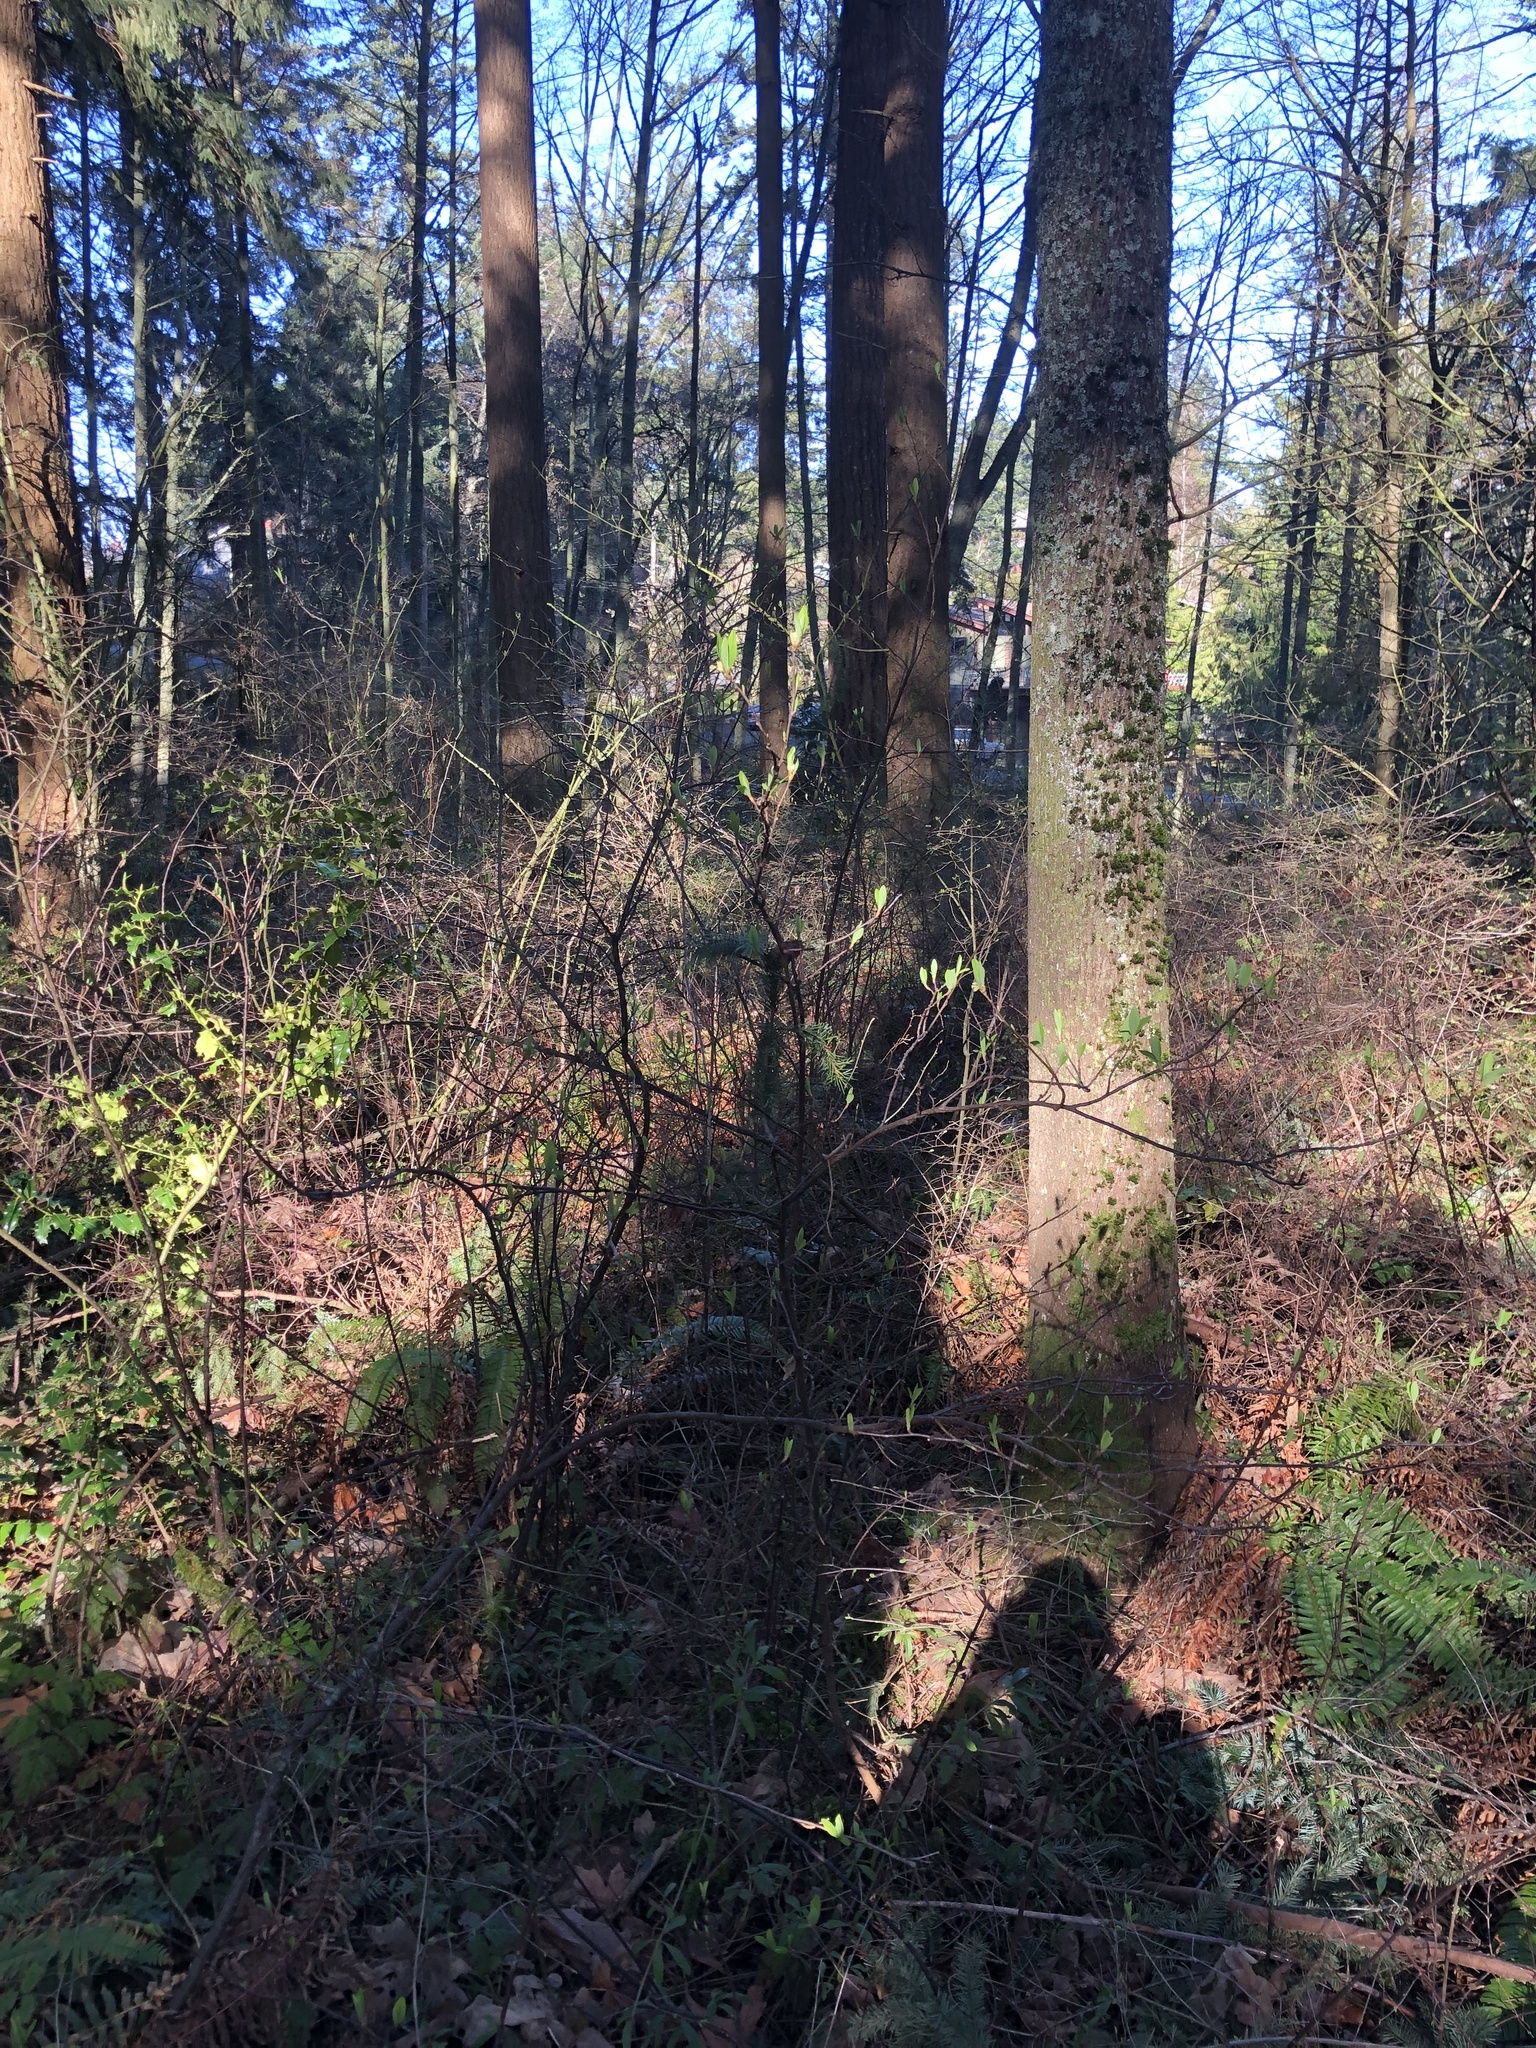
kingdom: Plantae
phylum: Tracheophyta
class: Magnoliopsida
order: Rosales
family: Rosaceae
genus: Oemleria
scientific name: Oemleria cerasiformis
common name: Osoberry
